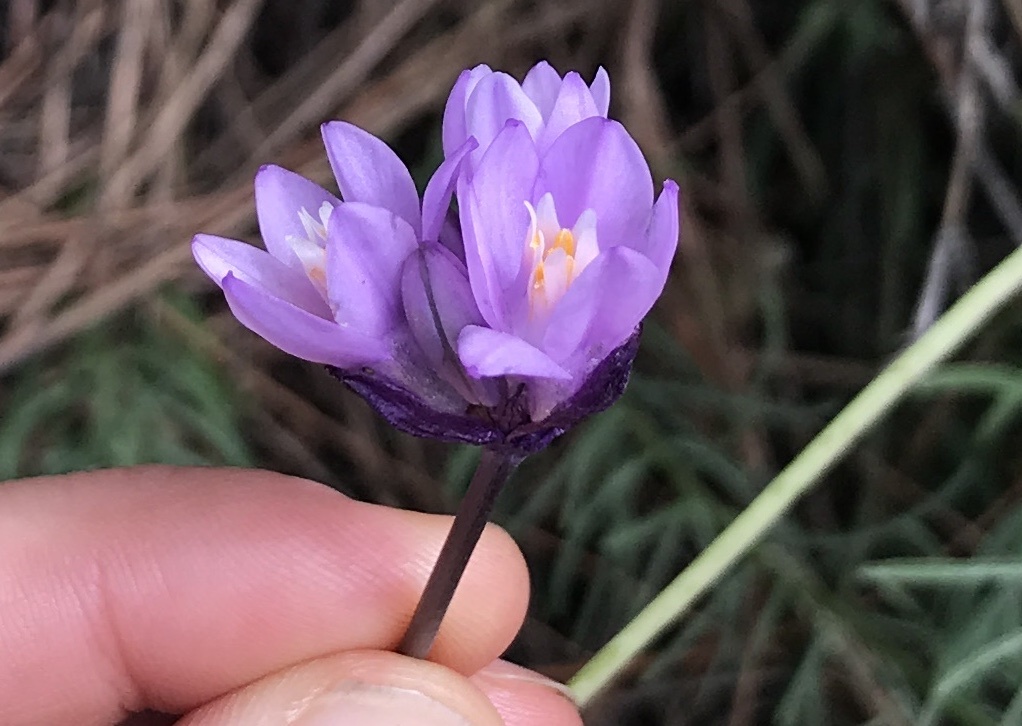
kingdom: Plantae
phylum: Tracheophyta
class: Liliopsida
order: Asparagales
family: Asparagaceae
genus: Dipterostemon
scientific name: Dipterostemon capitatus
